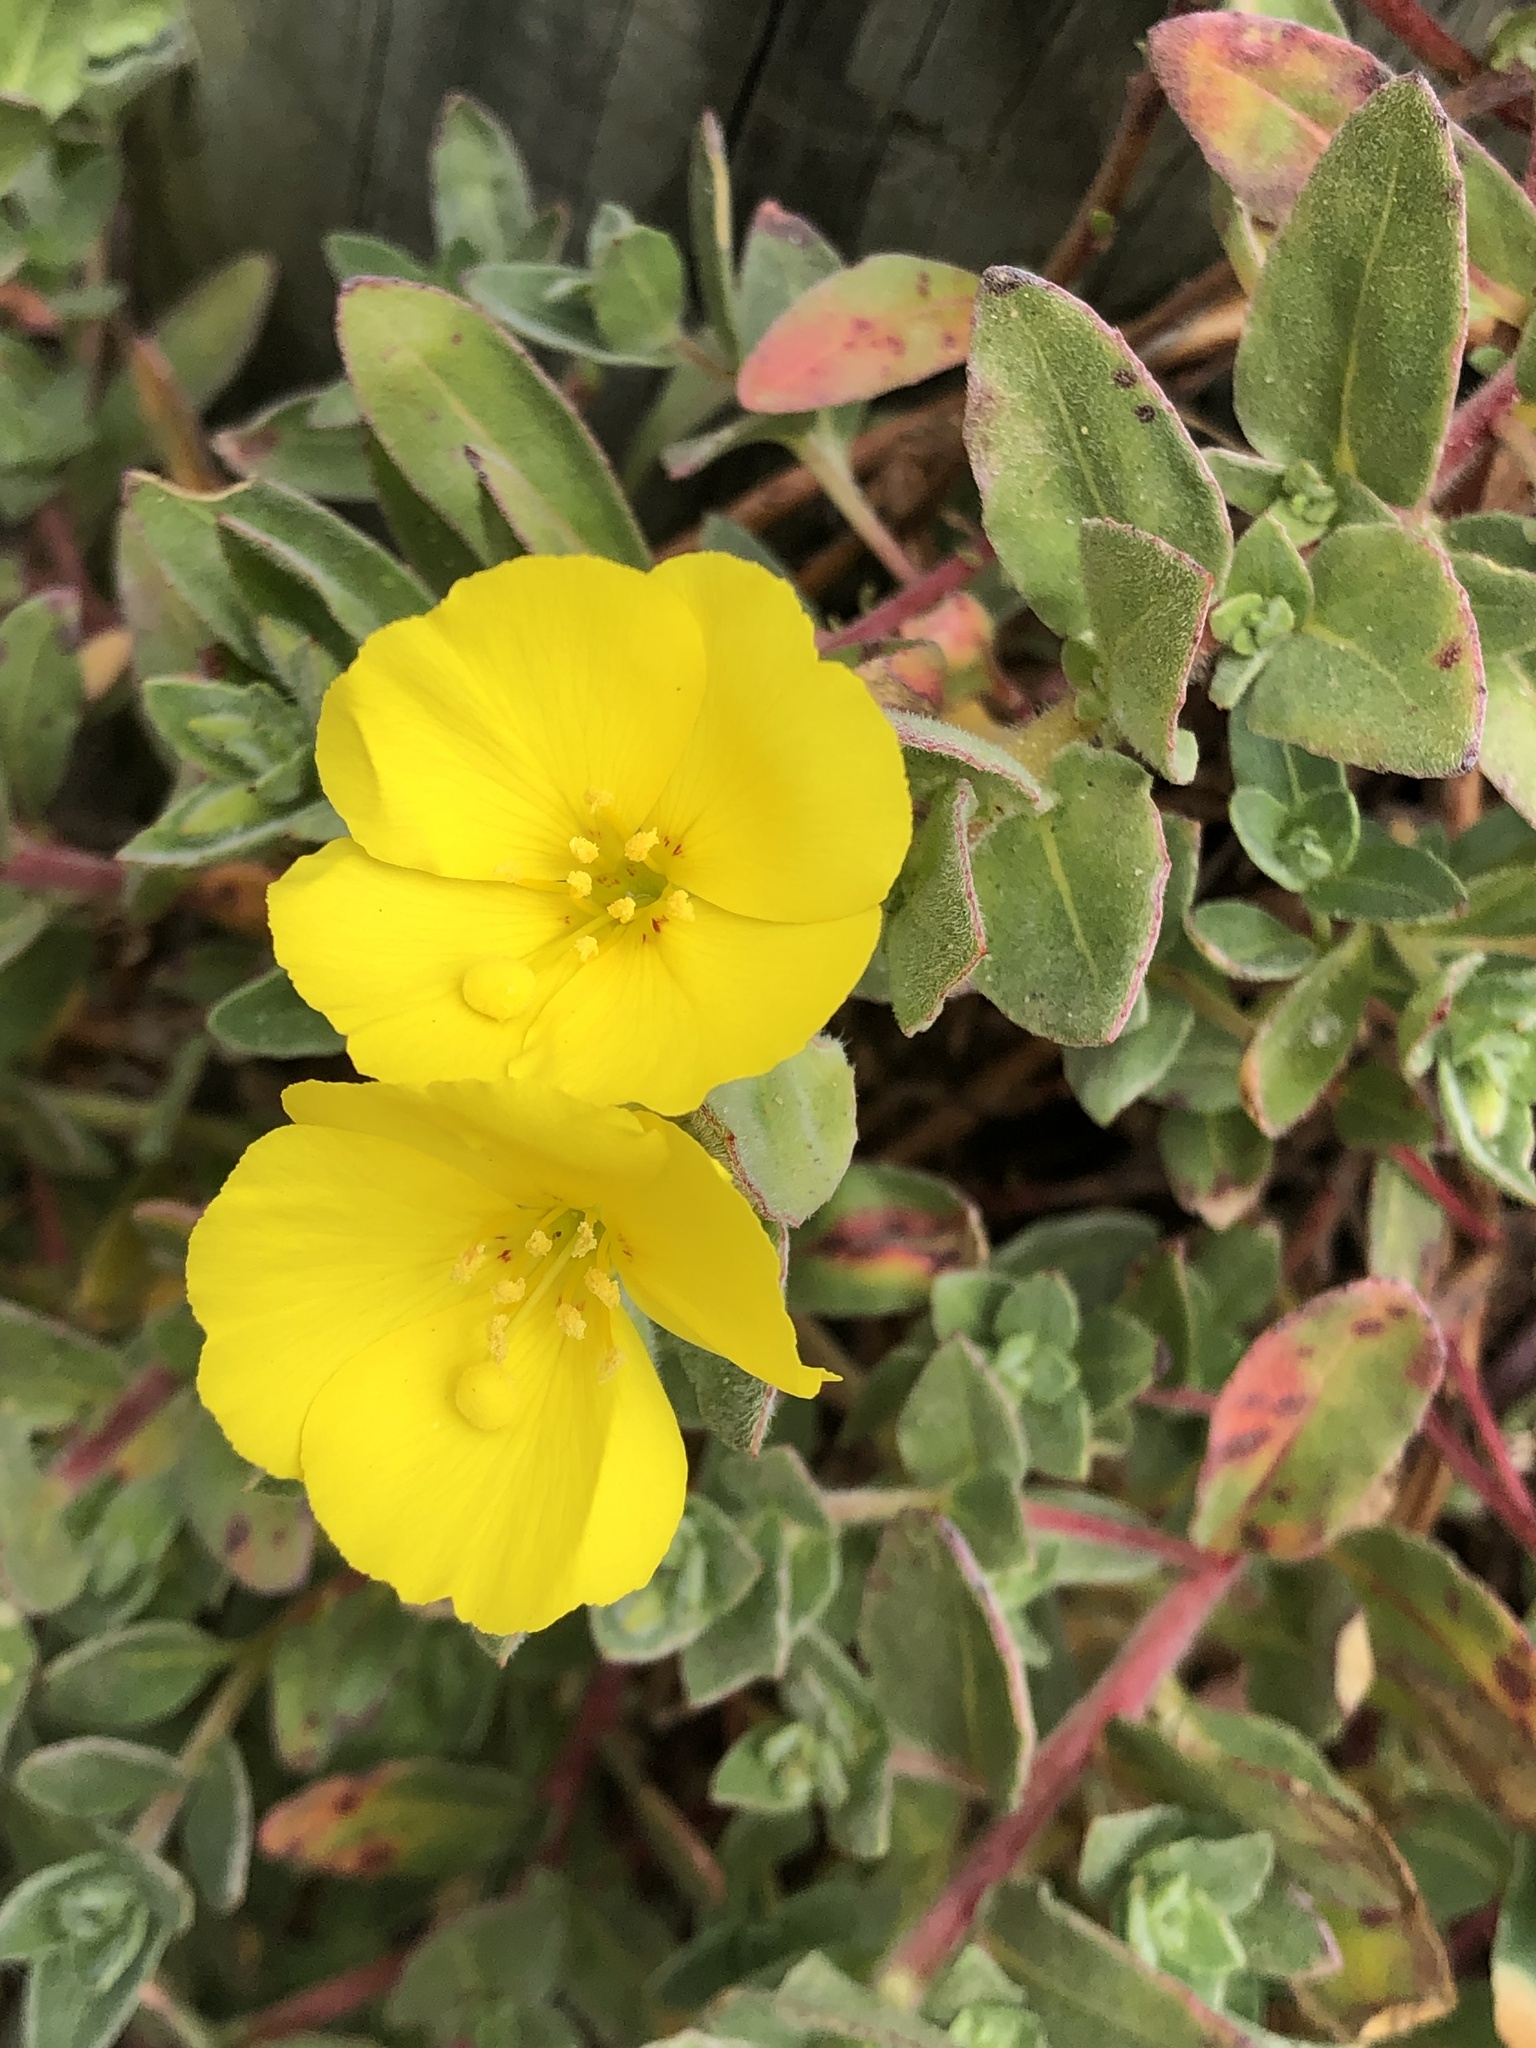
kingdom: Plantae
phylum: Tracheophyta
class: Magnoliopsida
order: Myrtales
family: Onagraceae
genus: Camissoniopsis
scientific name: Camissoniopsis cheiranthifolia
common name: Beach suncup
